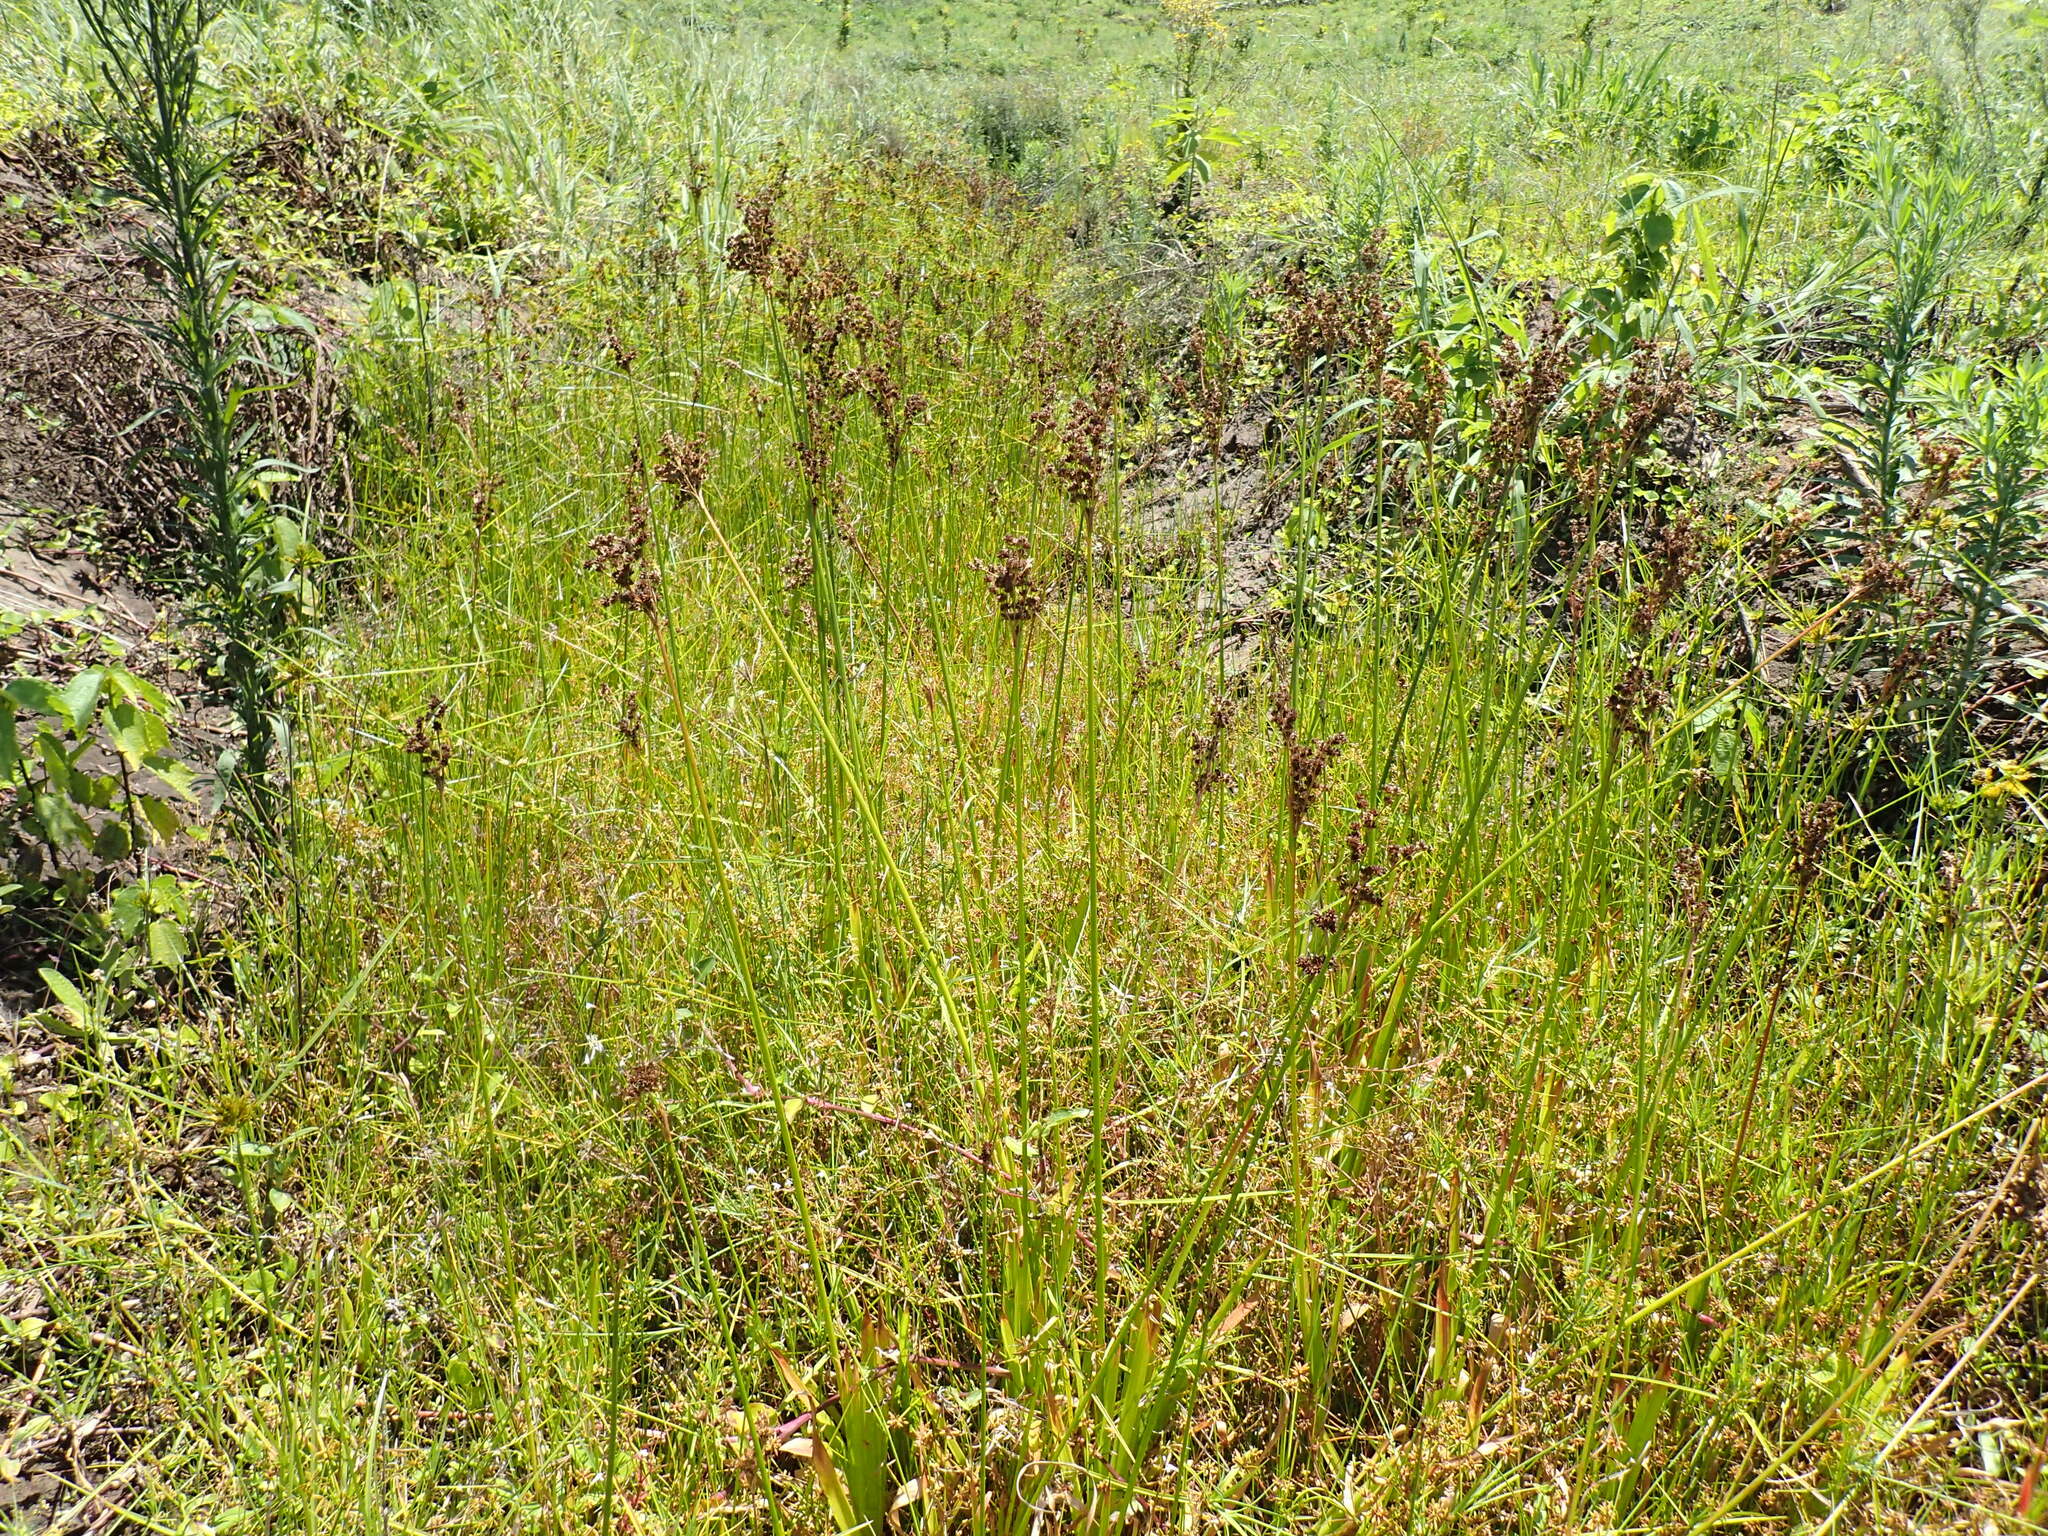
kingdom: Plantae
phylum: Tracheophyta
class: Liliopsida
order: Poales
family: Juncaceae
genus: Juncus
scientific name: Juncus lomatophyllus
